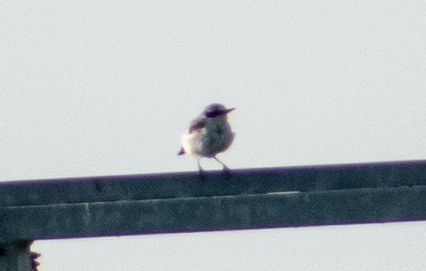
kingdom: Animalia
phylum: Chordata
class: Aves
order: Passeriformes
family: Muscicapidae
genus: Oenanthe
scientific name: Oenanthe oenanthe
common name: Northern wheatear
